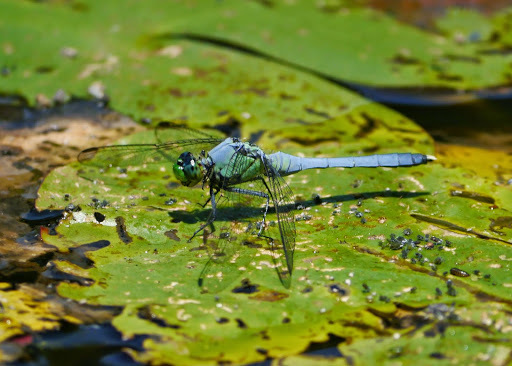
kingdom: Animalia
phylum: Arthropoda
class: Insecta
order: Odonata
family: Libellulidae
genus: Erythemis
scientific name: Erythemis simplicicollis
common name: Eastern pondhawk
